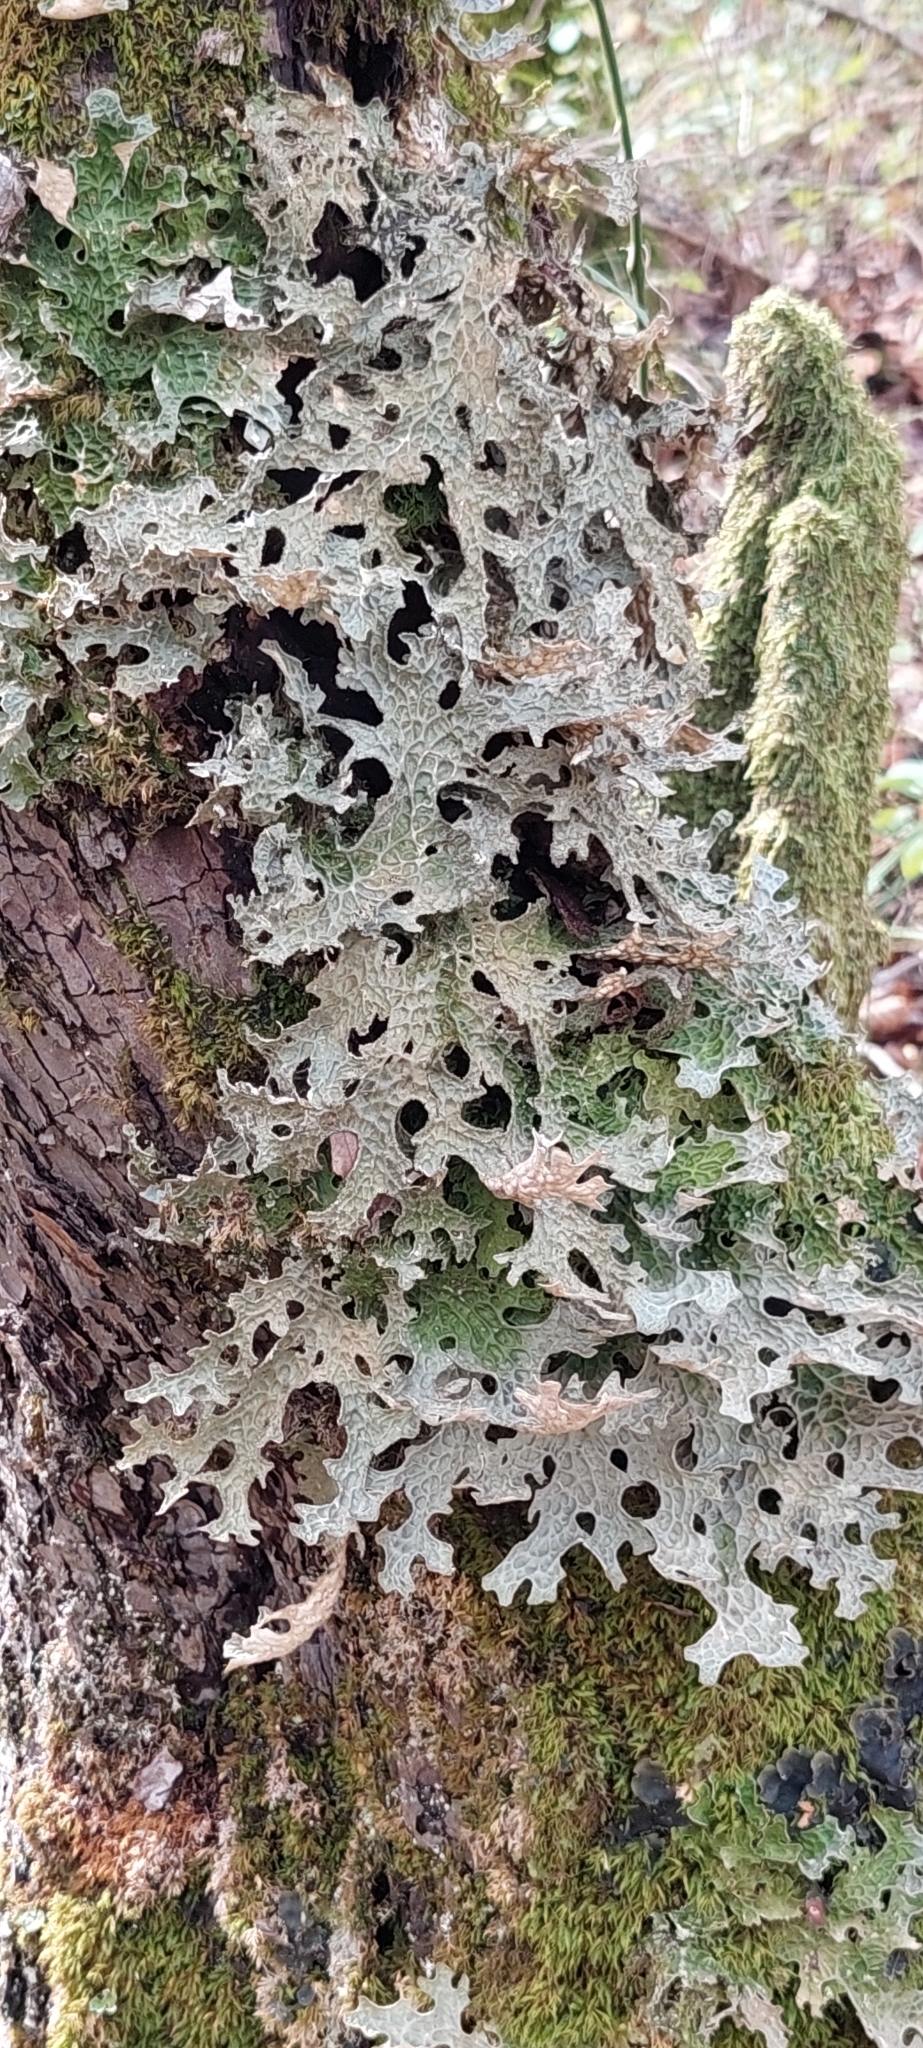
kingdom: Fungi
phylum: Ascomycota
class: Lecanoromycetes
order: Peltigerales
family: Lobariaceae
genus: Lobaria
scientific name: Lobaria pulmonaria
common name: Lungwort
